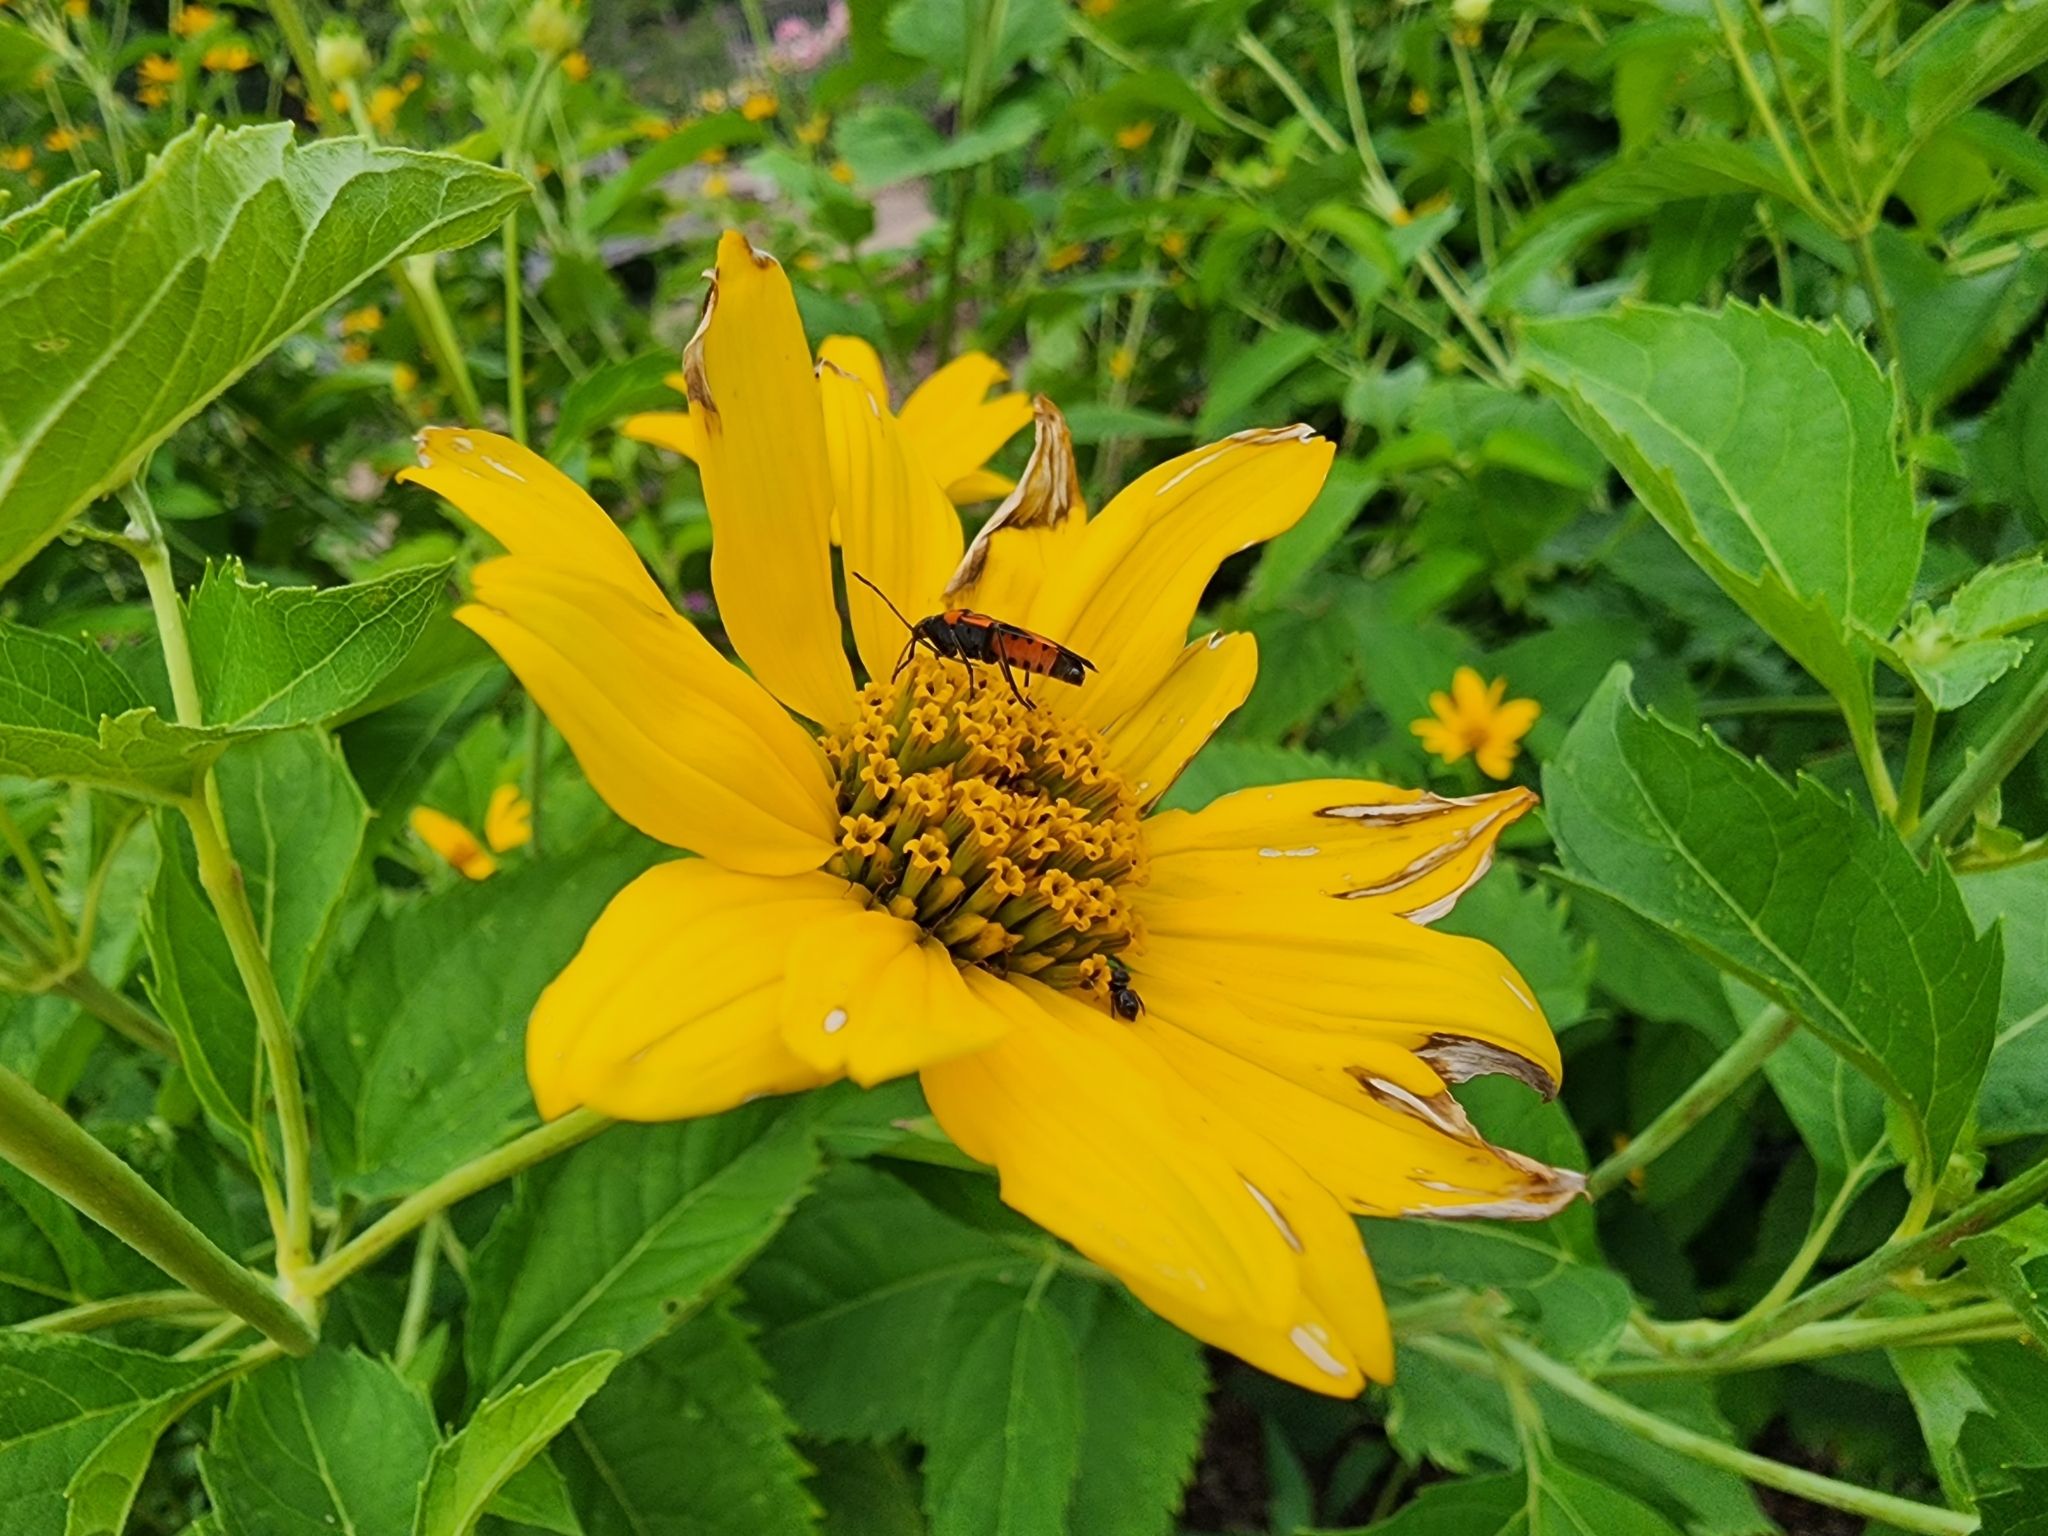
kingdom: Animalia
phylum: Arthropoda
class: Insecta
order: Hemiptera
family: Lygaeidae
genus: Lygaeus
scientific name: Lygaeus turcicus
